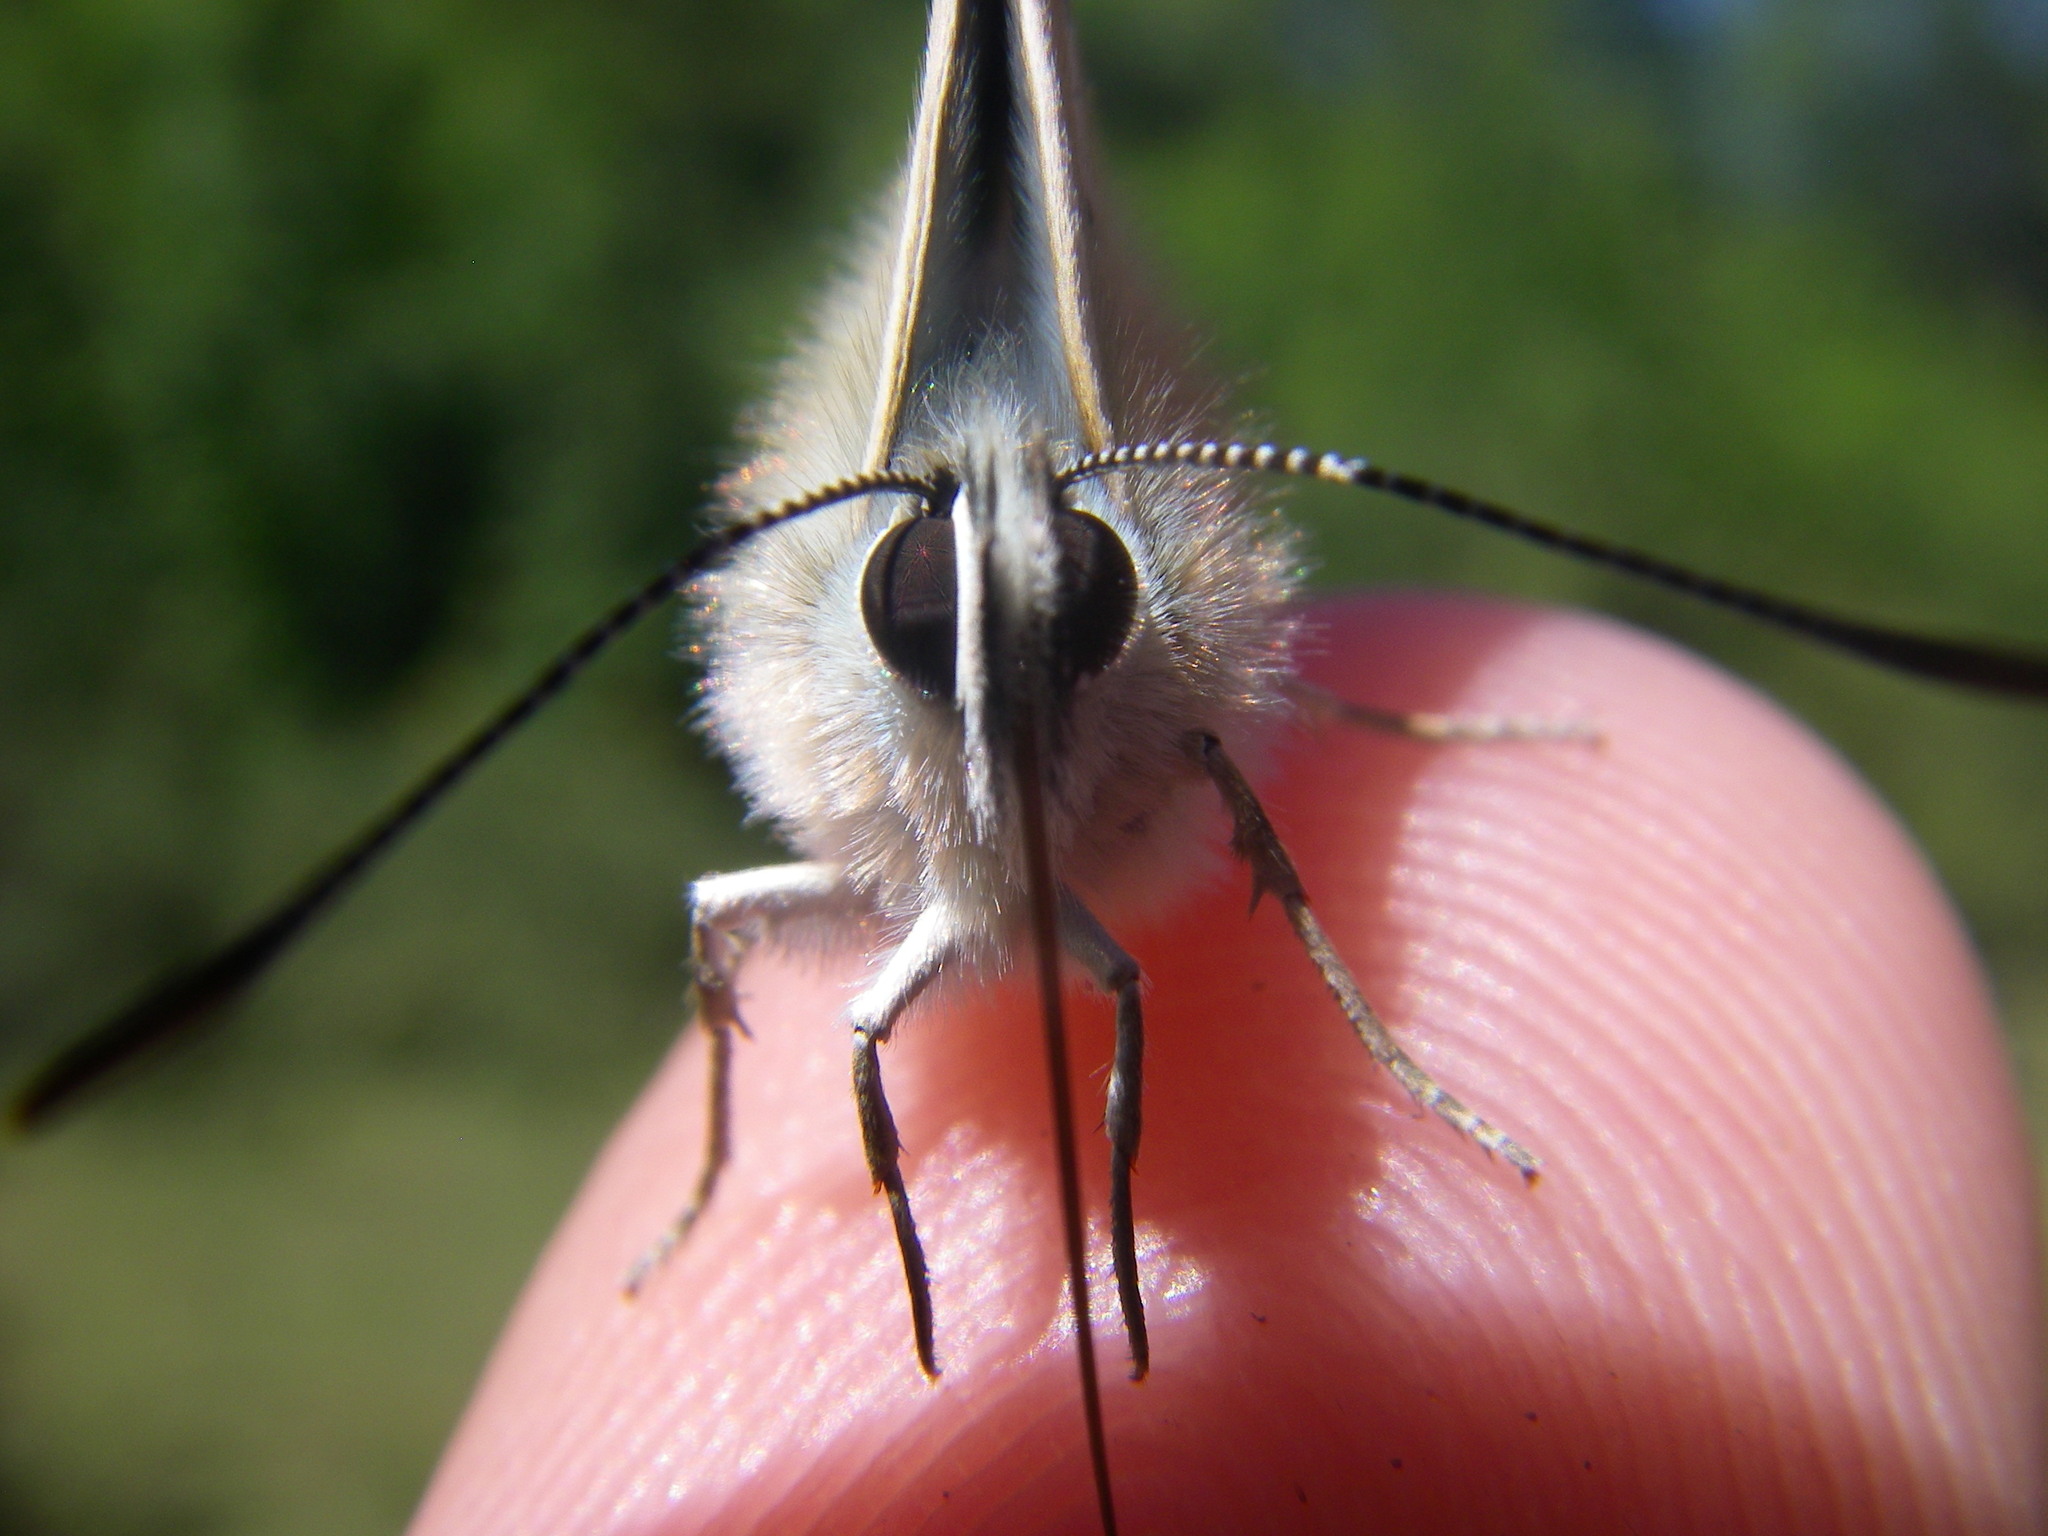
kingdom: Animalia
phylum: Arthropoda
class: Insecta
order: Lepidoptera
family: Lycaenidae
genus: Lysandra
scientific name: Lysandra coridon
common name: Chalkhill blue
